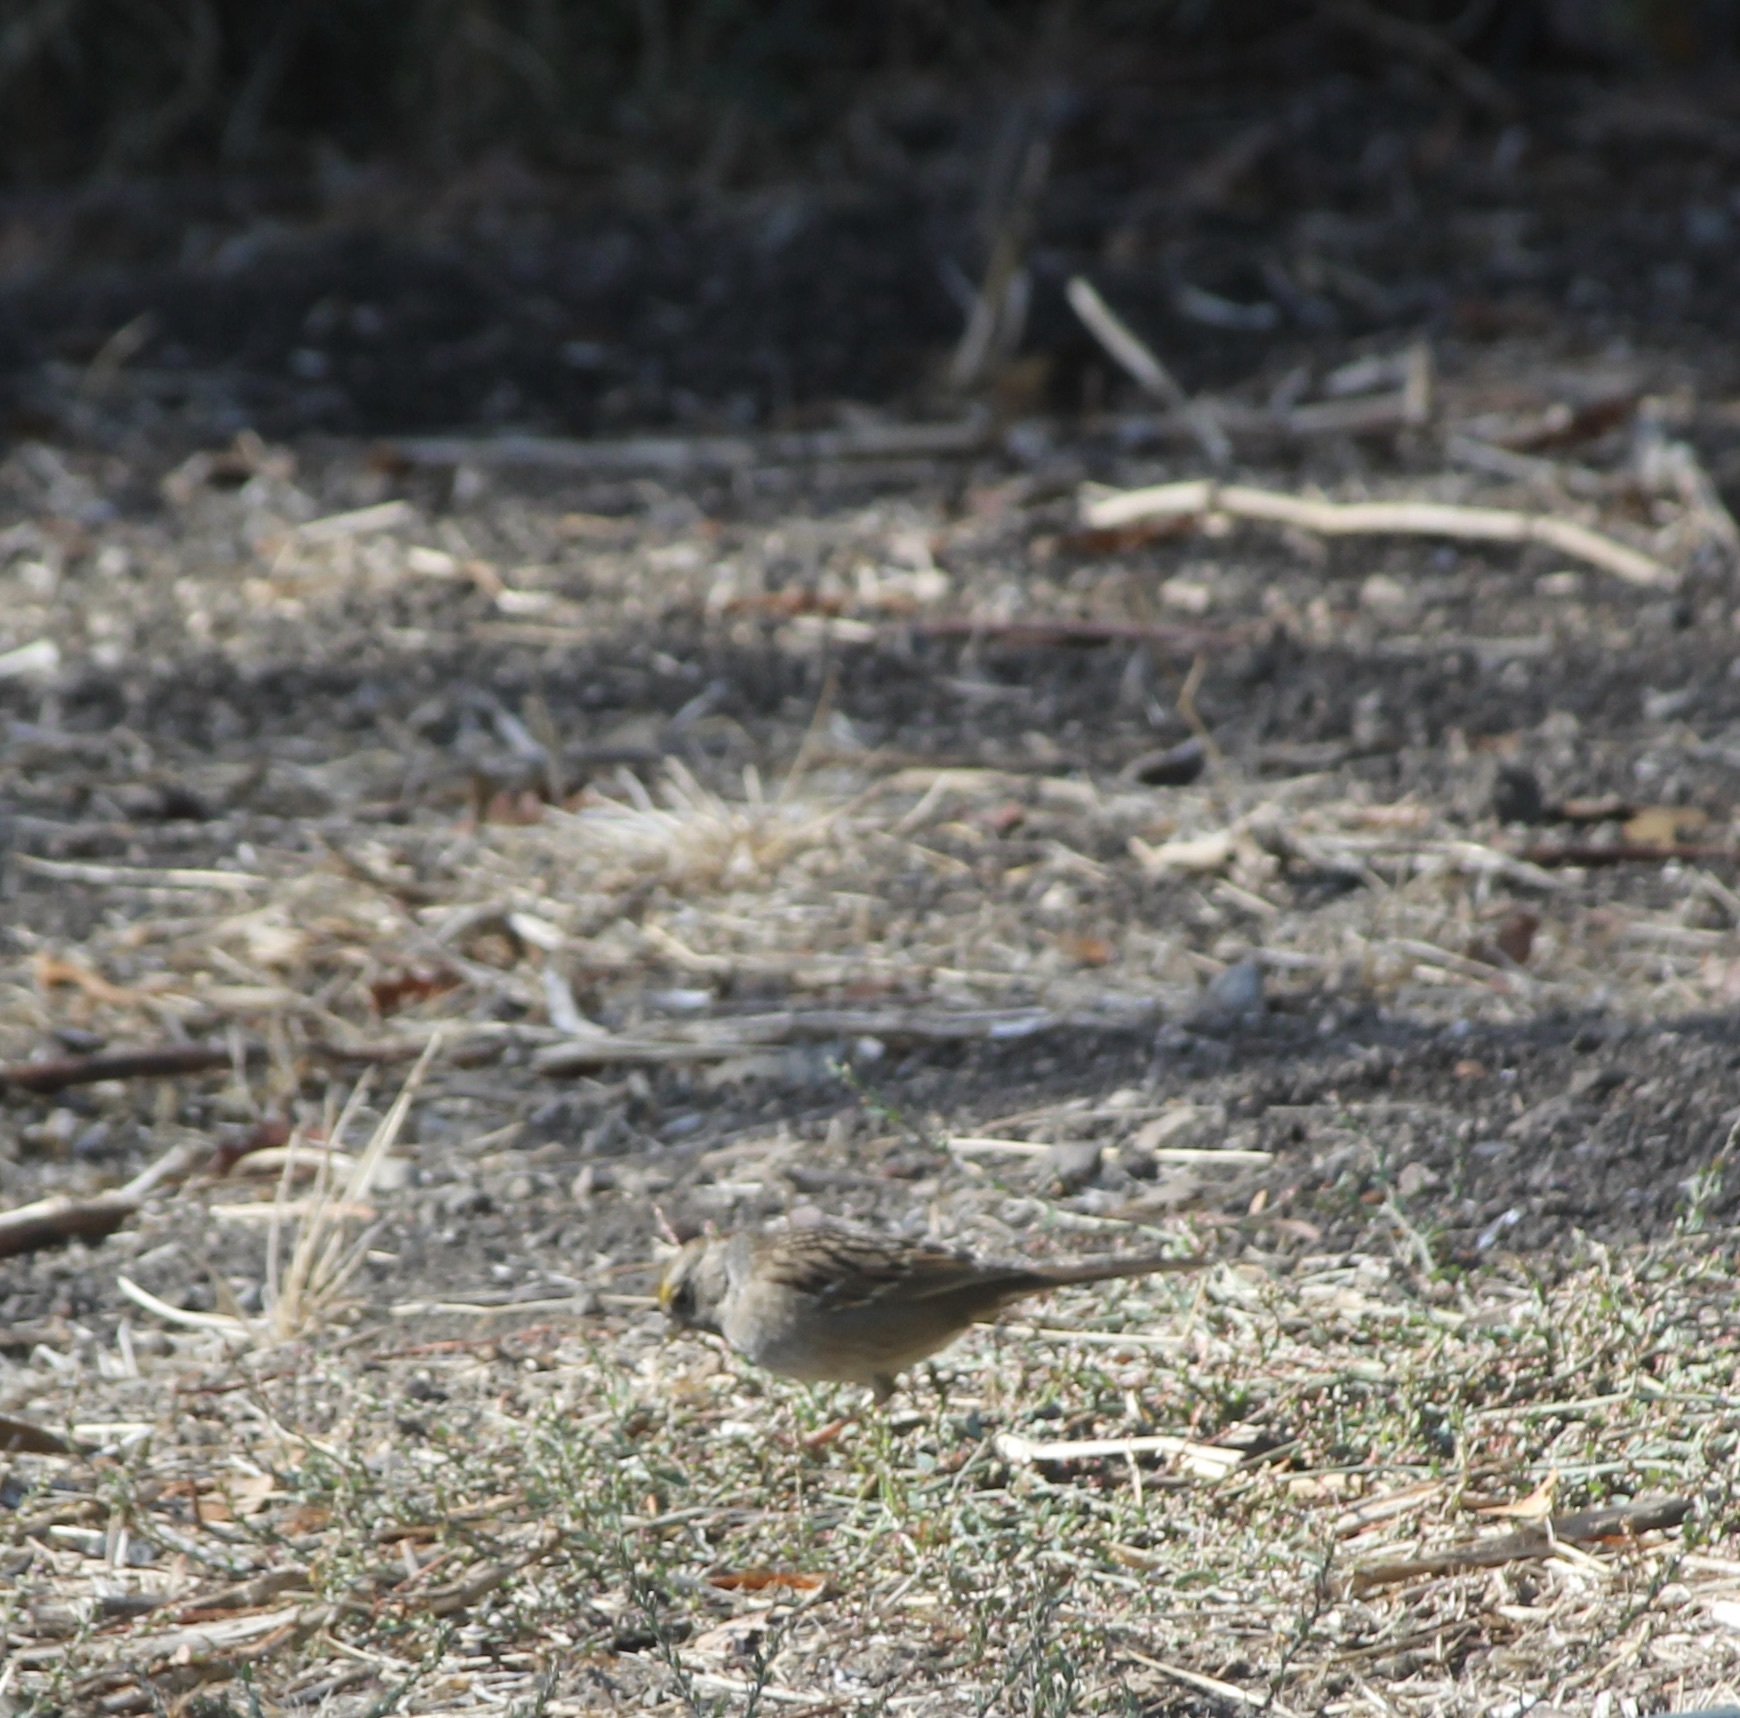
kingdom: Animalia
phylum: Chordata
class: Aves
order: Passeriformes
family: Passerellidae
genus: Zonotrichia
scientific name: Zonotrichia atricapilla
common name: Golden-crowned sparrow
